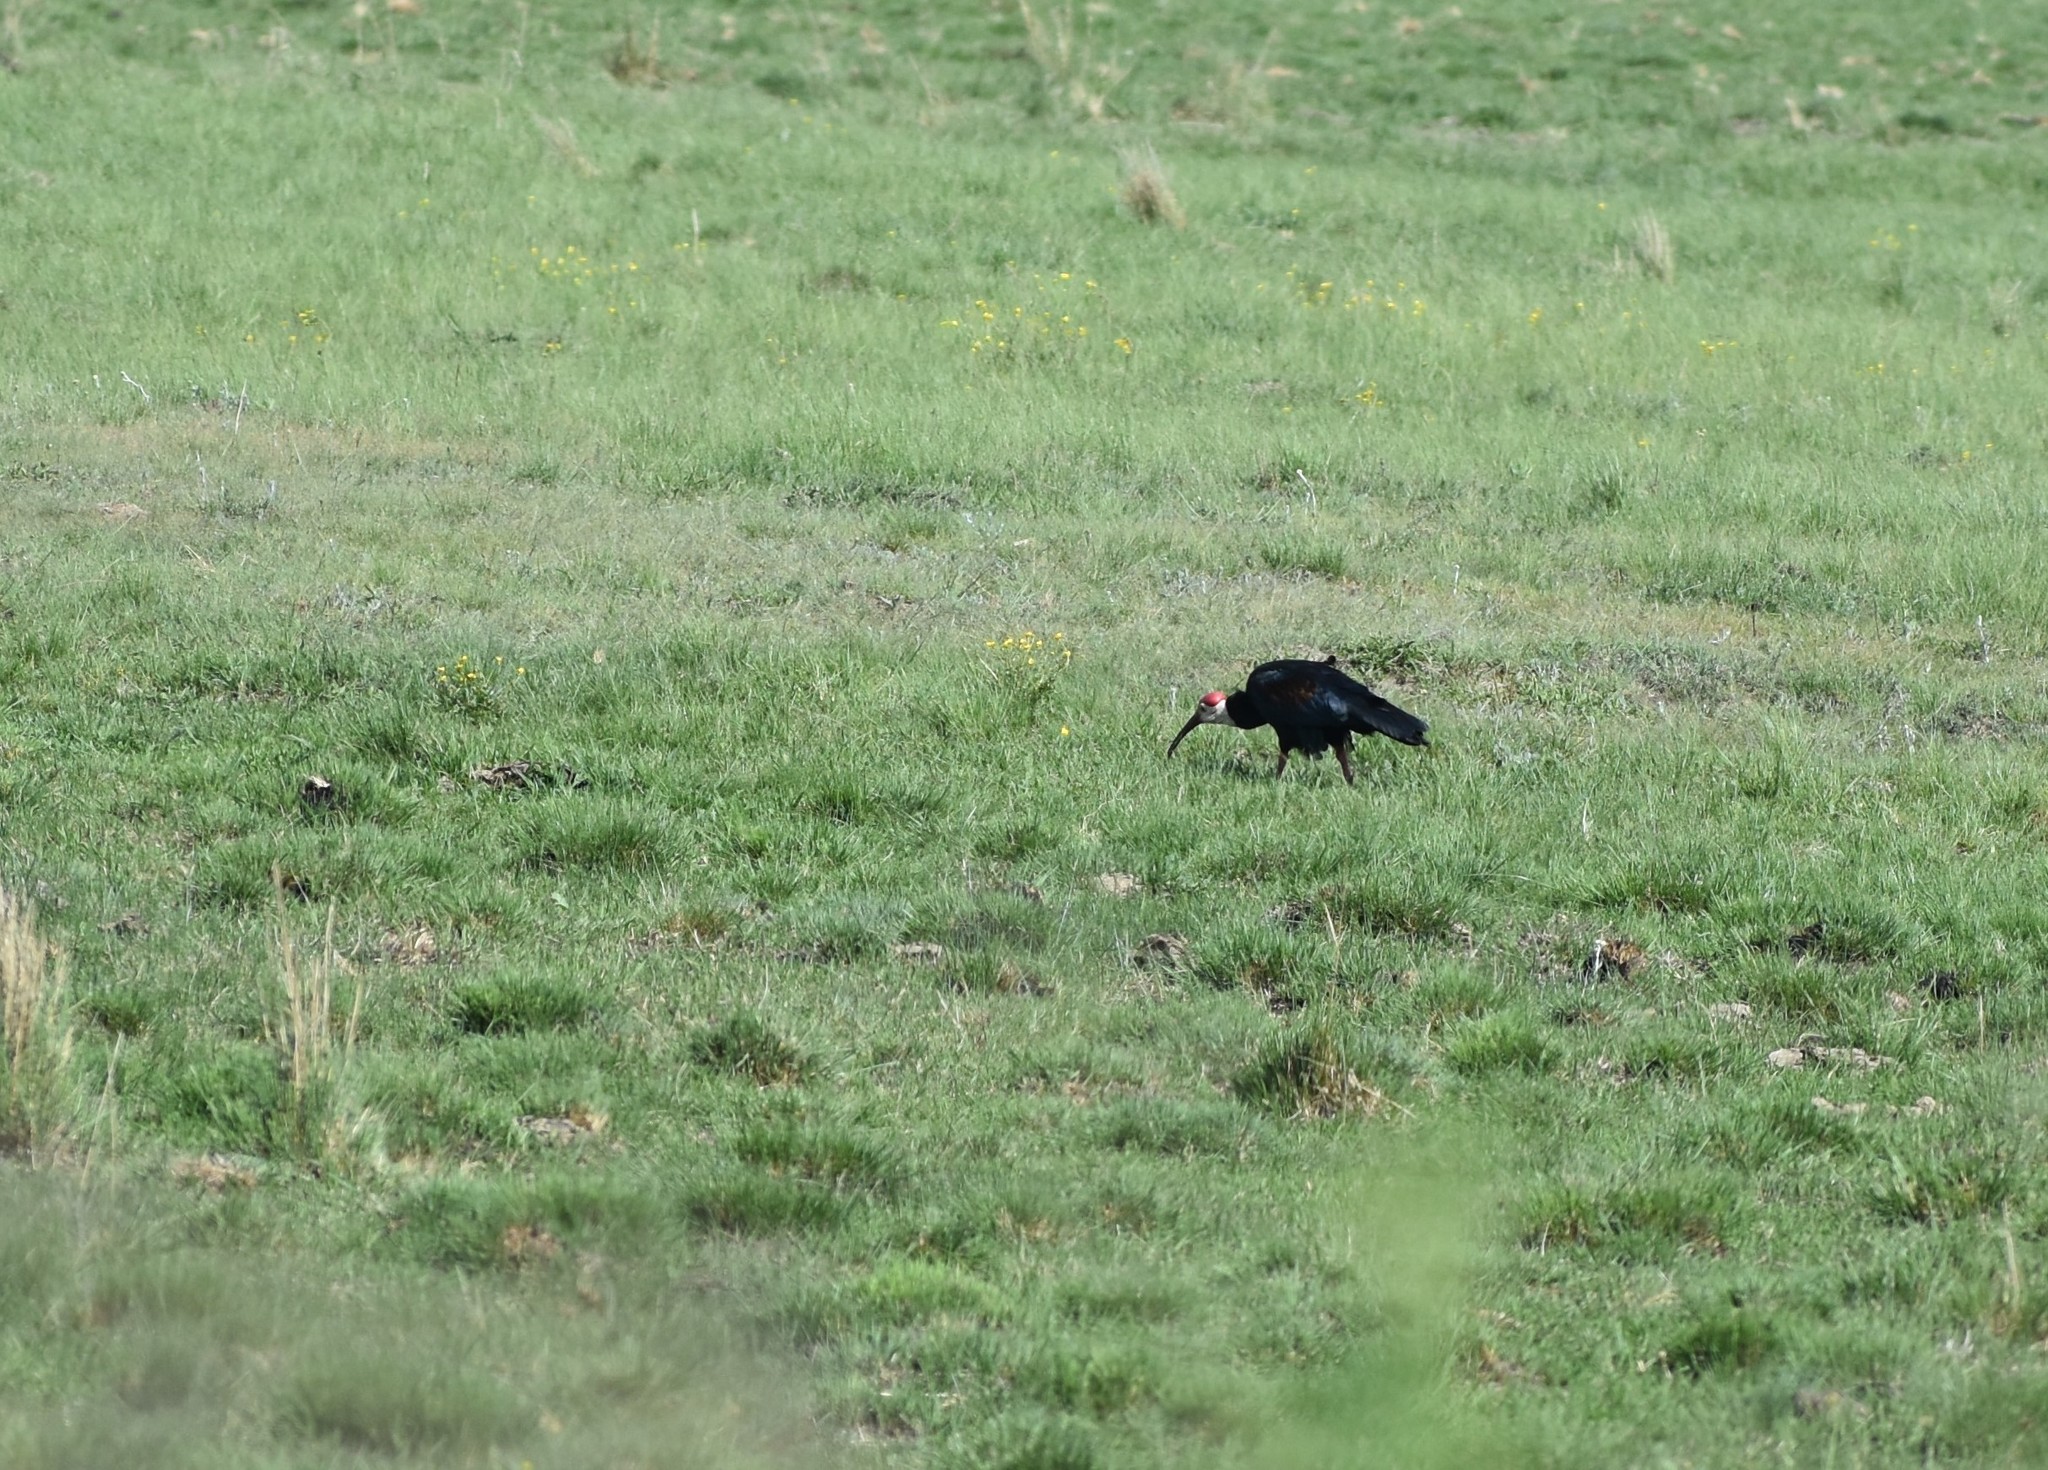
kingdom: Animalia
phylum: Chordata
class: Aves
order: Pelecaniformes
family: Threskiornithidae
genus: Geronticus
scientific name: Geronticus calvus
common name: Southern bald ibis
